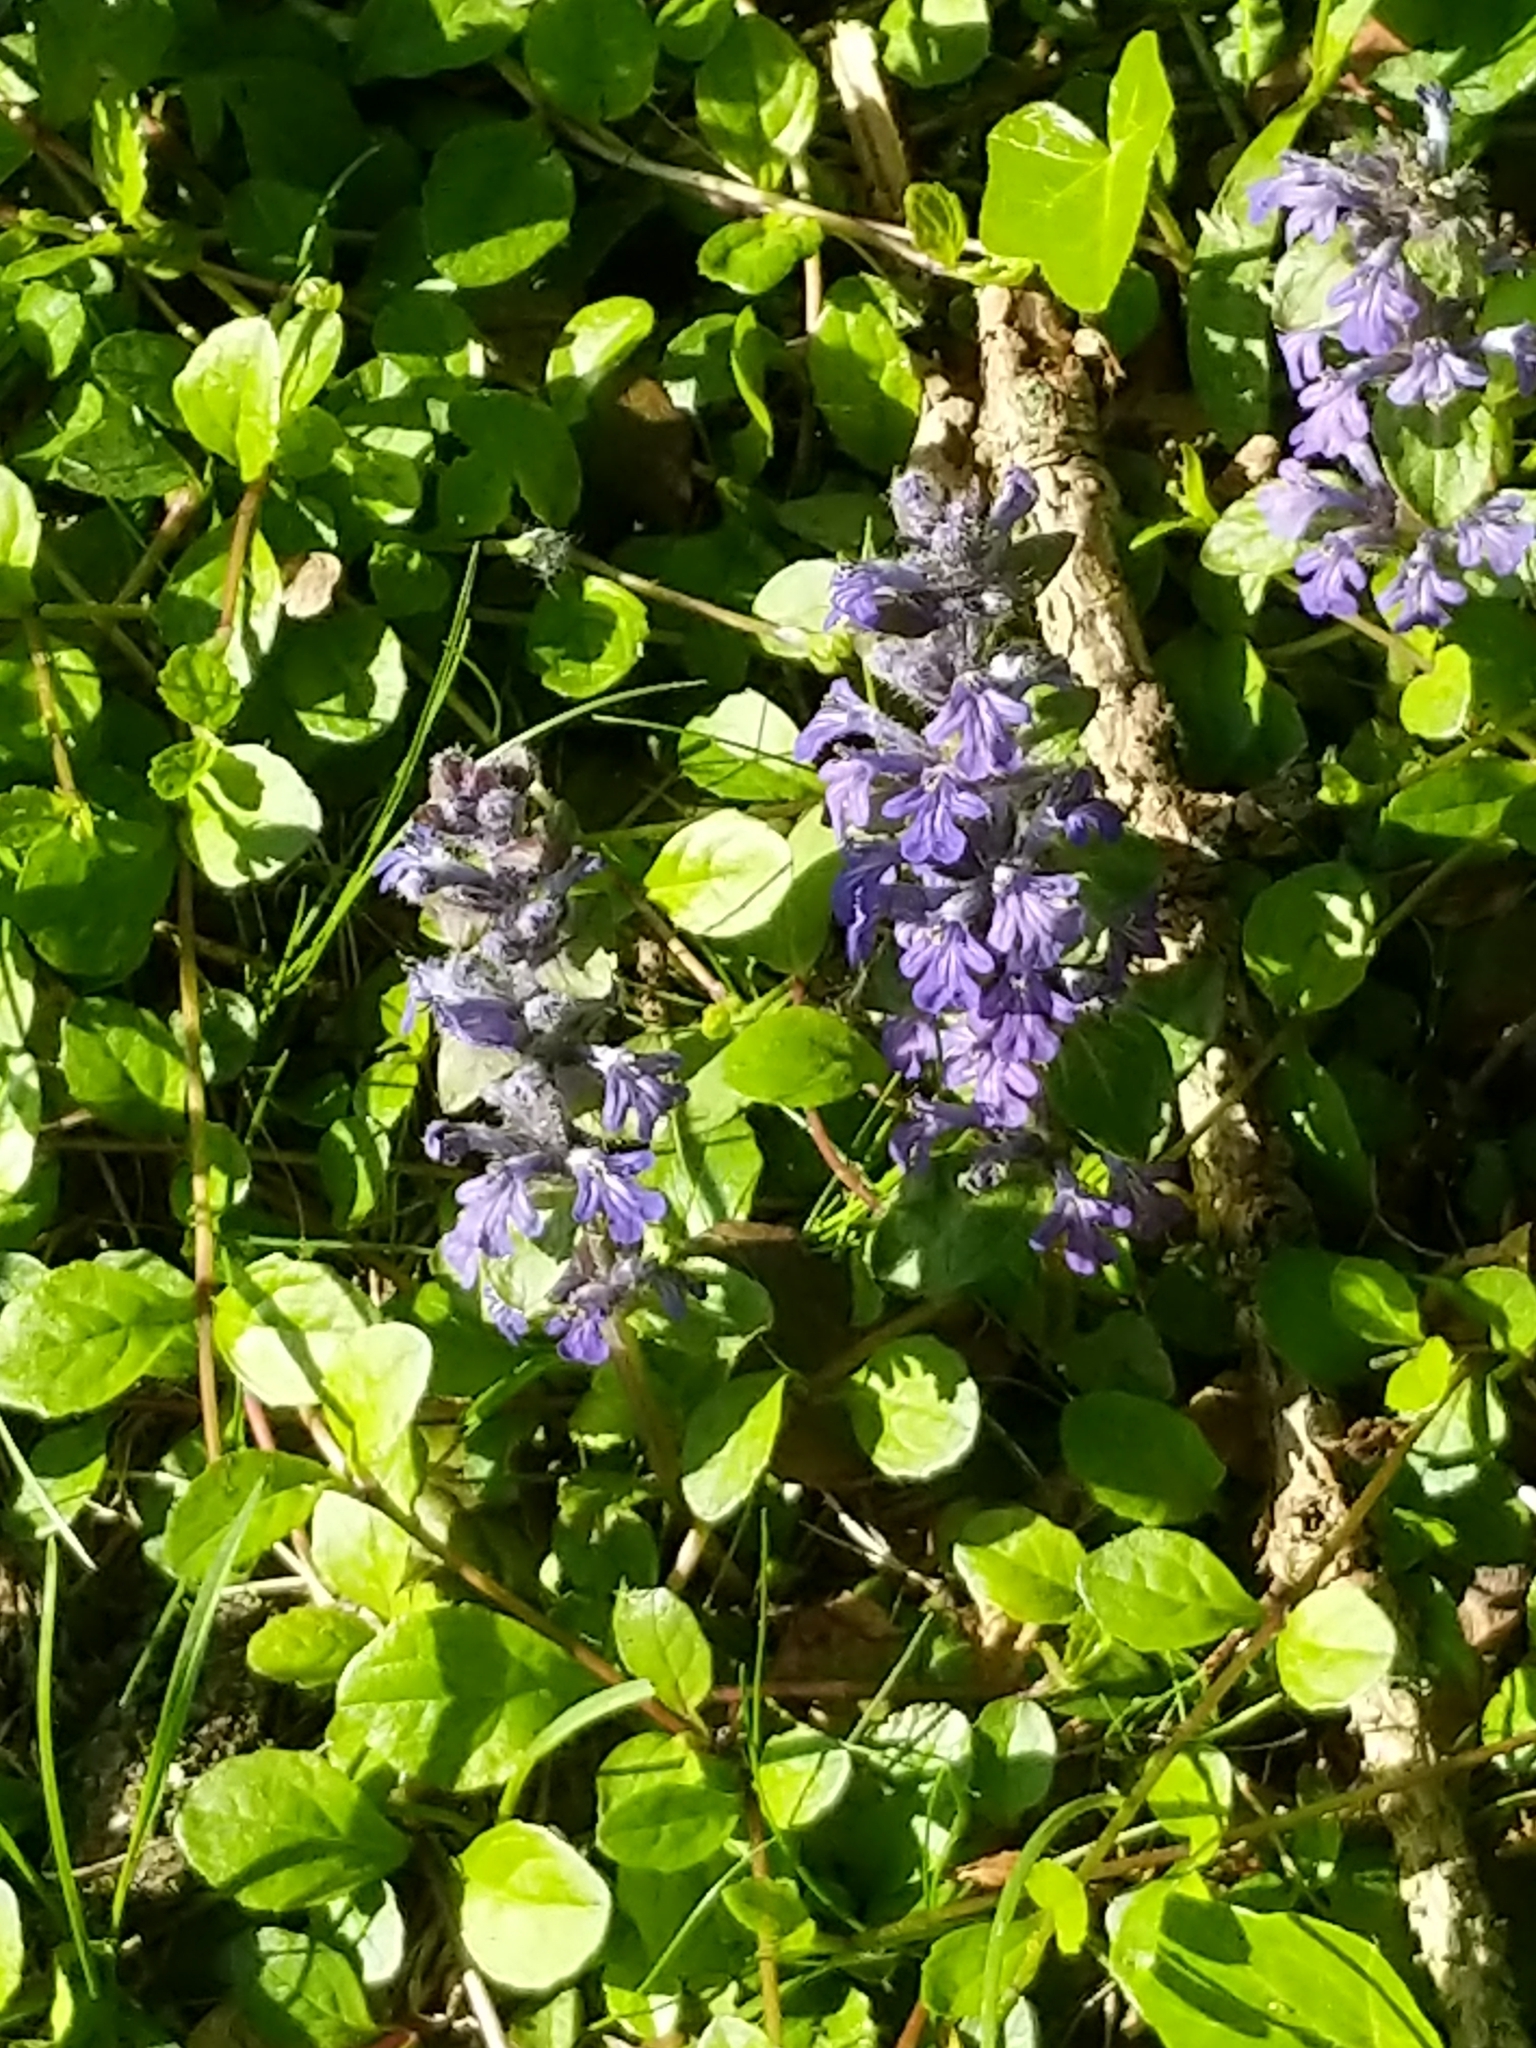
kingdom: Plantae
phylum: Tracheophyta
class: Magnoliopsida
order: Lamiales
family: Lamiaceae
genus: Ajuga
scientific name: Ajuga reptans
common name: Bugle
